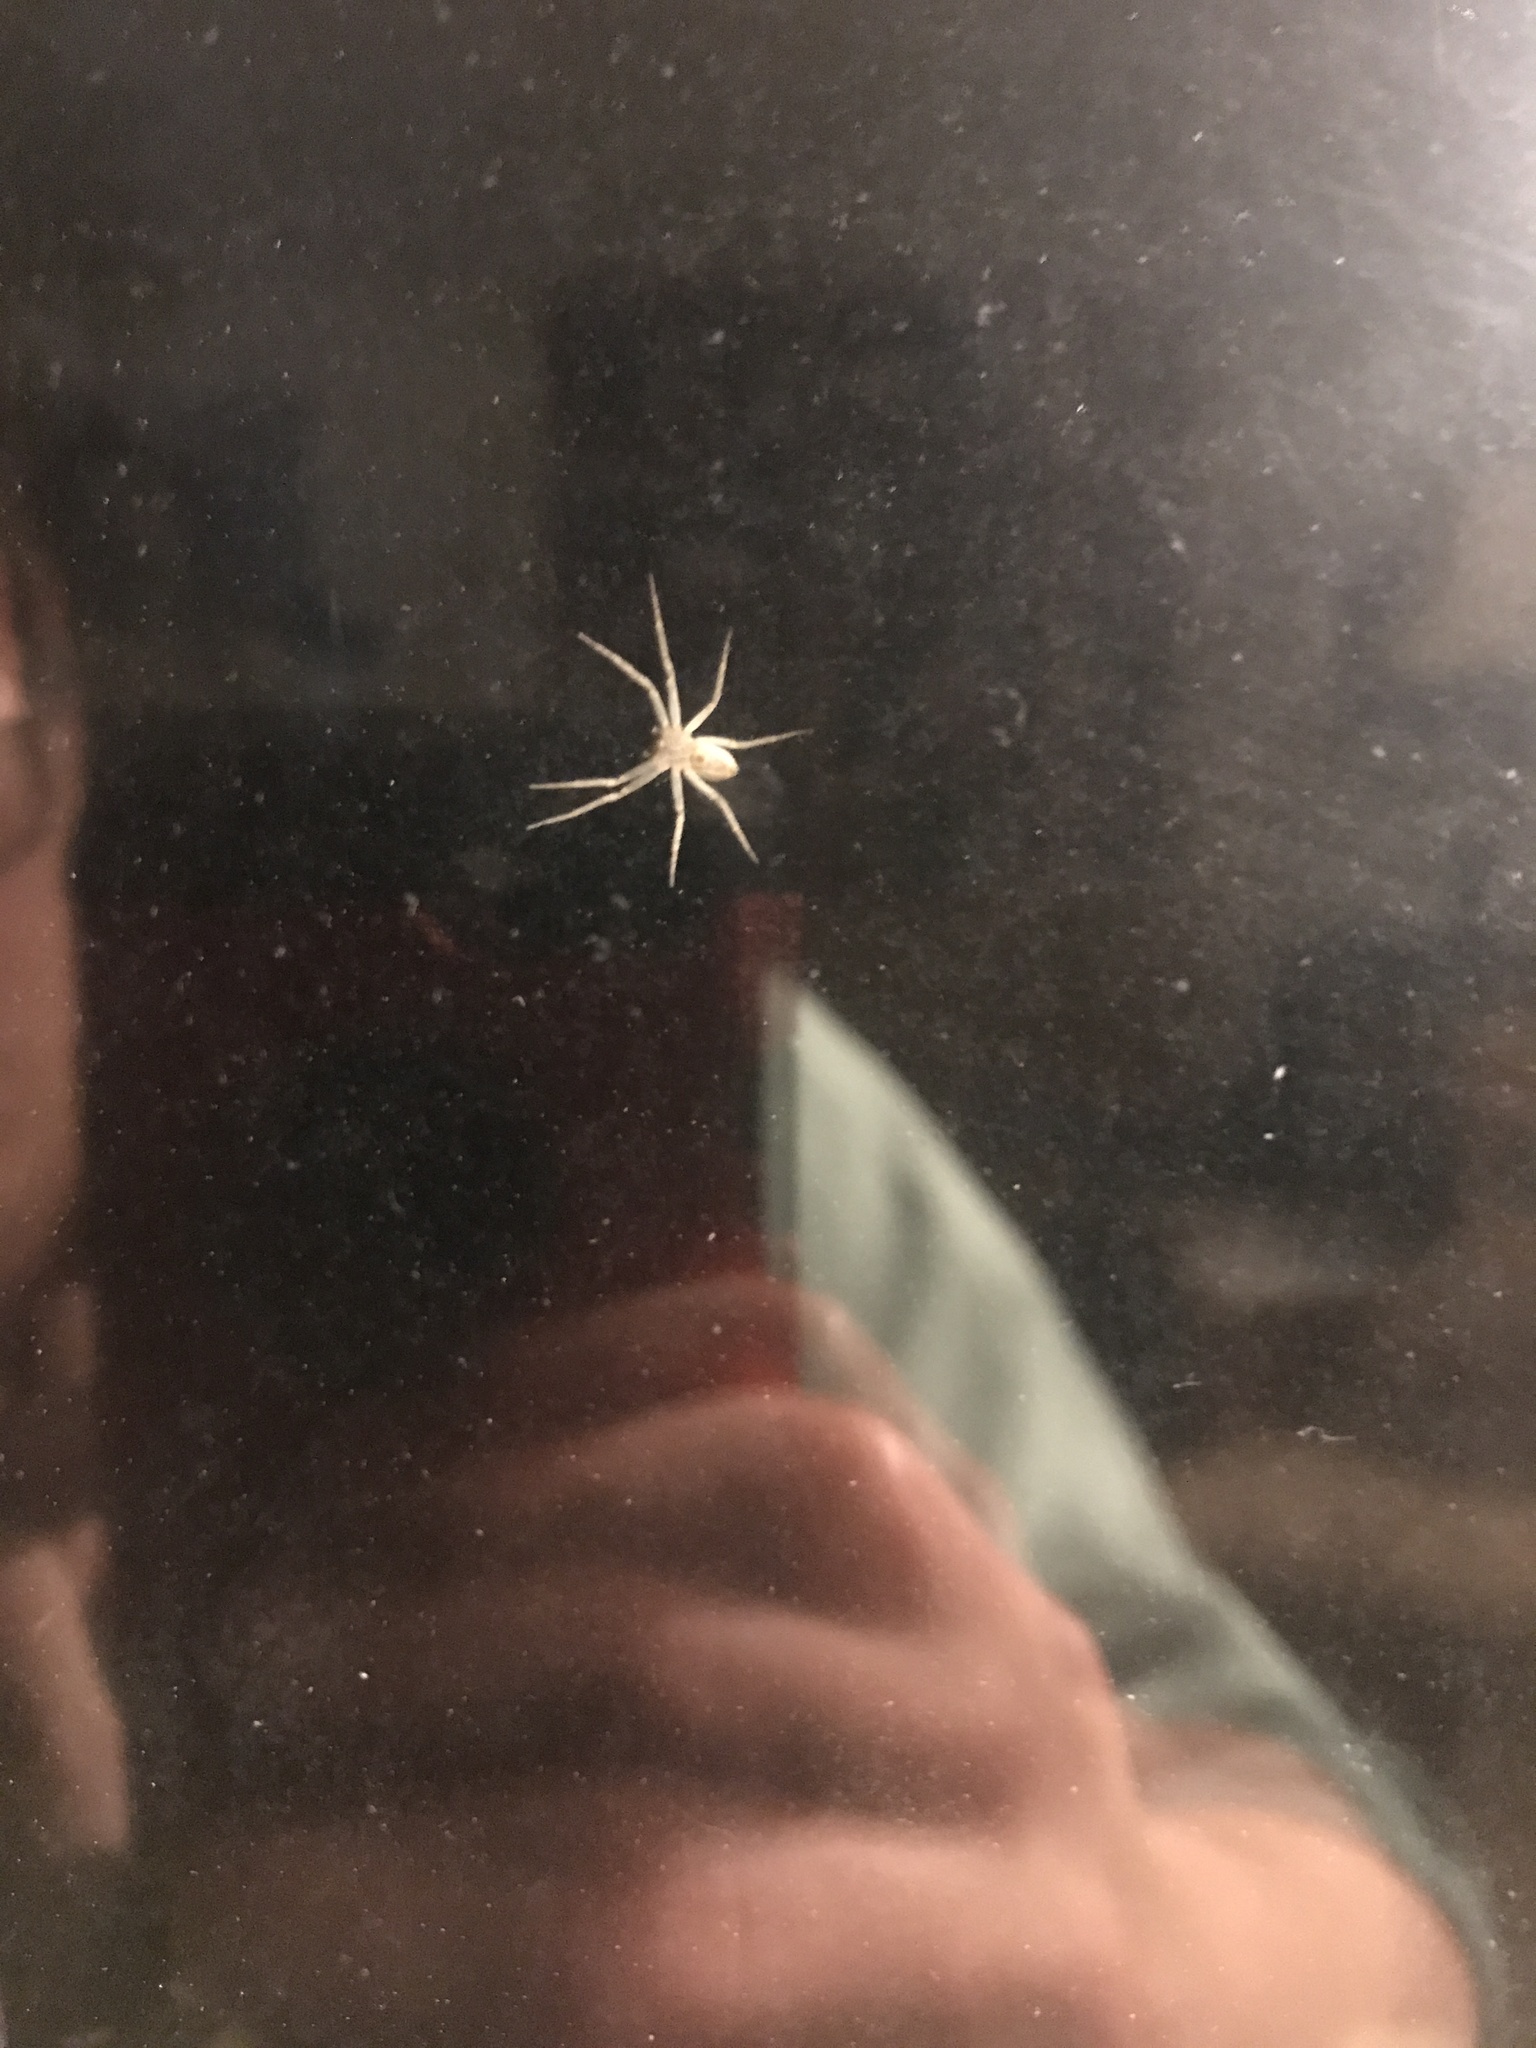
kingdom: Animalia
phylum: Arthropoda
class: Arachnida
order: Araneae
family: Cheiracanthiidae
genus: Cheiracanthium
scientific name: Cheiracanthium mildei
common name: Northern yellow sac spider
